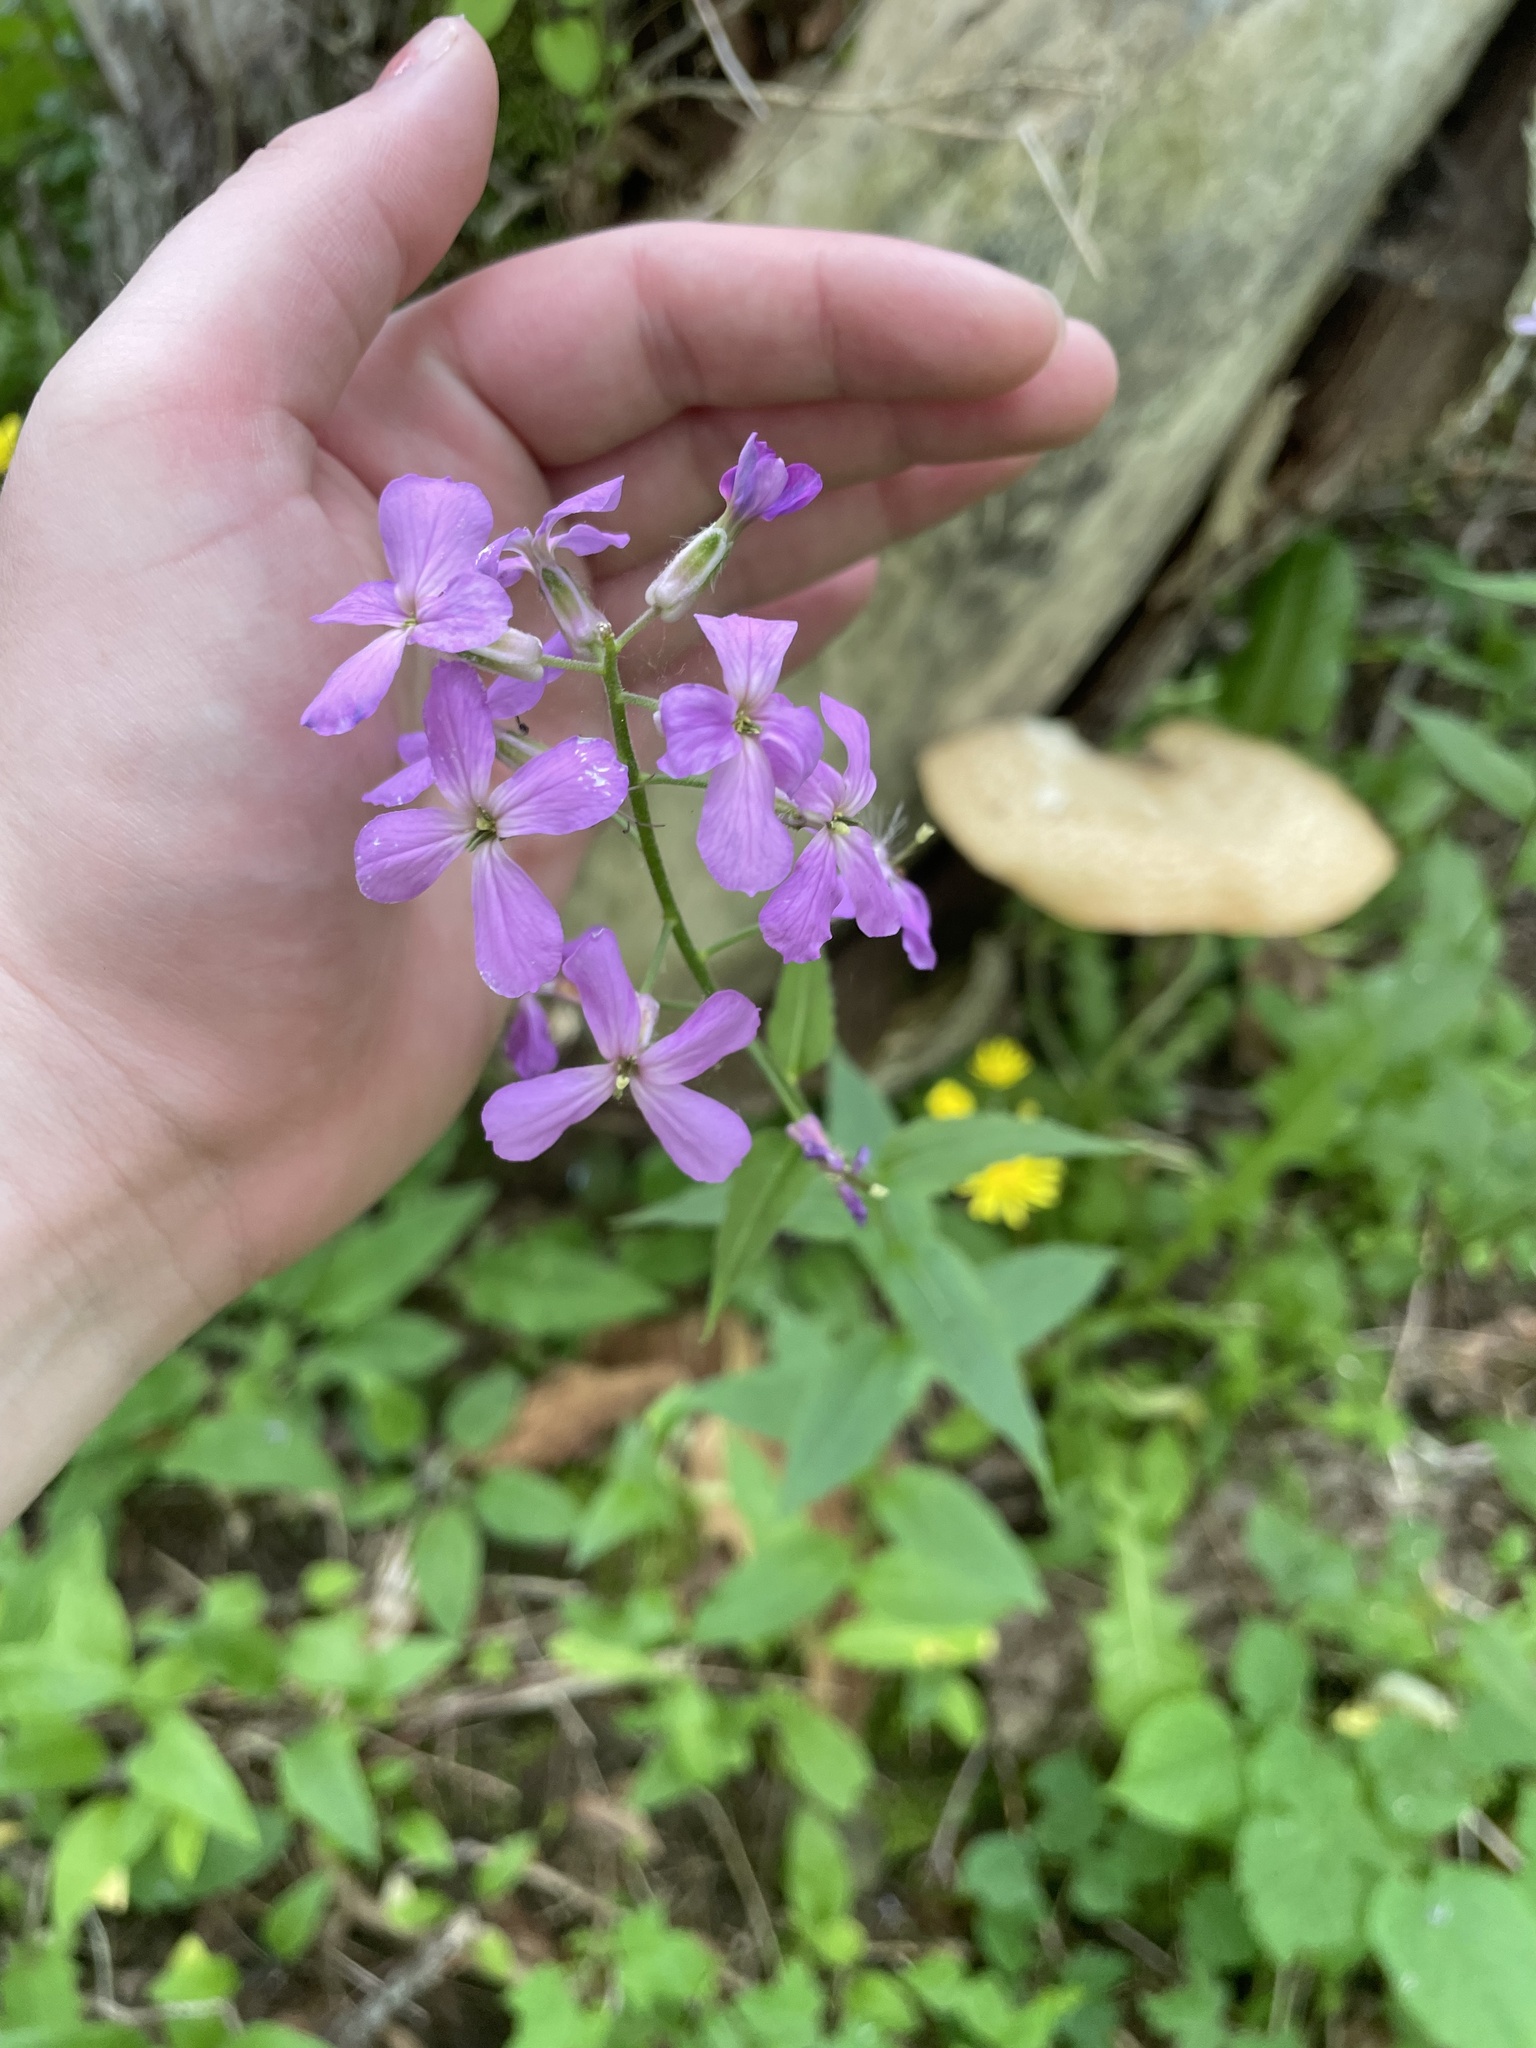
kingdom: Plantae
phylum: Tracheophyta
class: Magnoliopsida
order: Brassicales
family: Brassicaceae
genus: Hesperis
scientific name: Hesperis matronalis
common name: Dame's-violet
